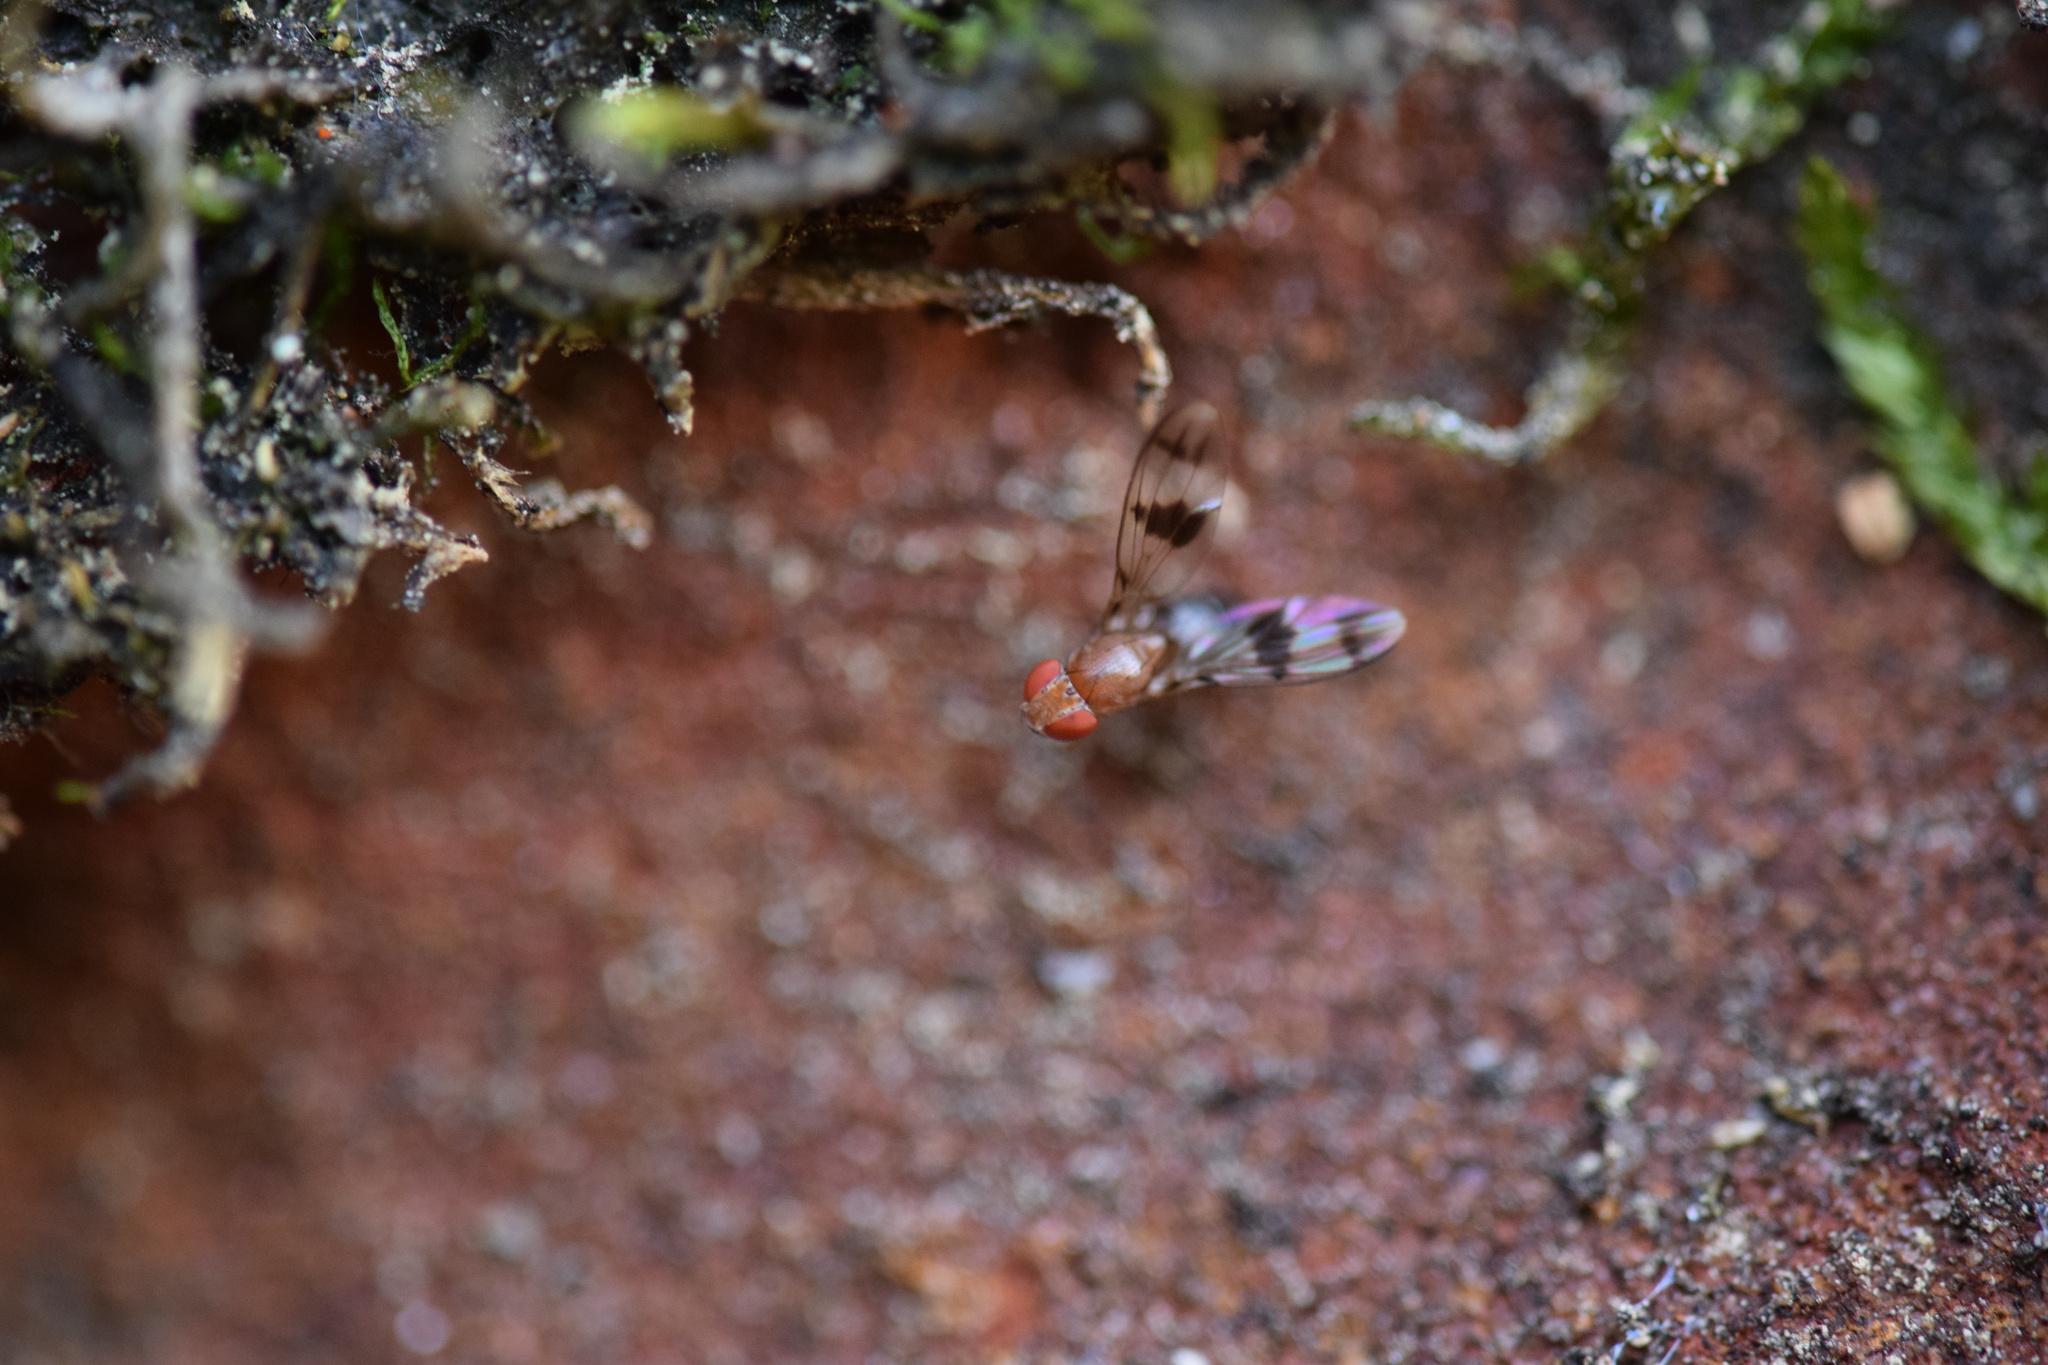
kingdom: Animalia
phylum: Arthropoda
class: Insecta
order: Diptera
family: Drosophilidae
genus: Chymomyza
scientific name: Chymomyza amoena
